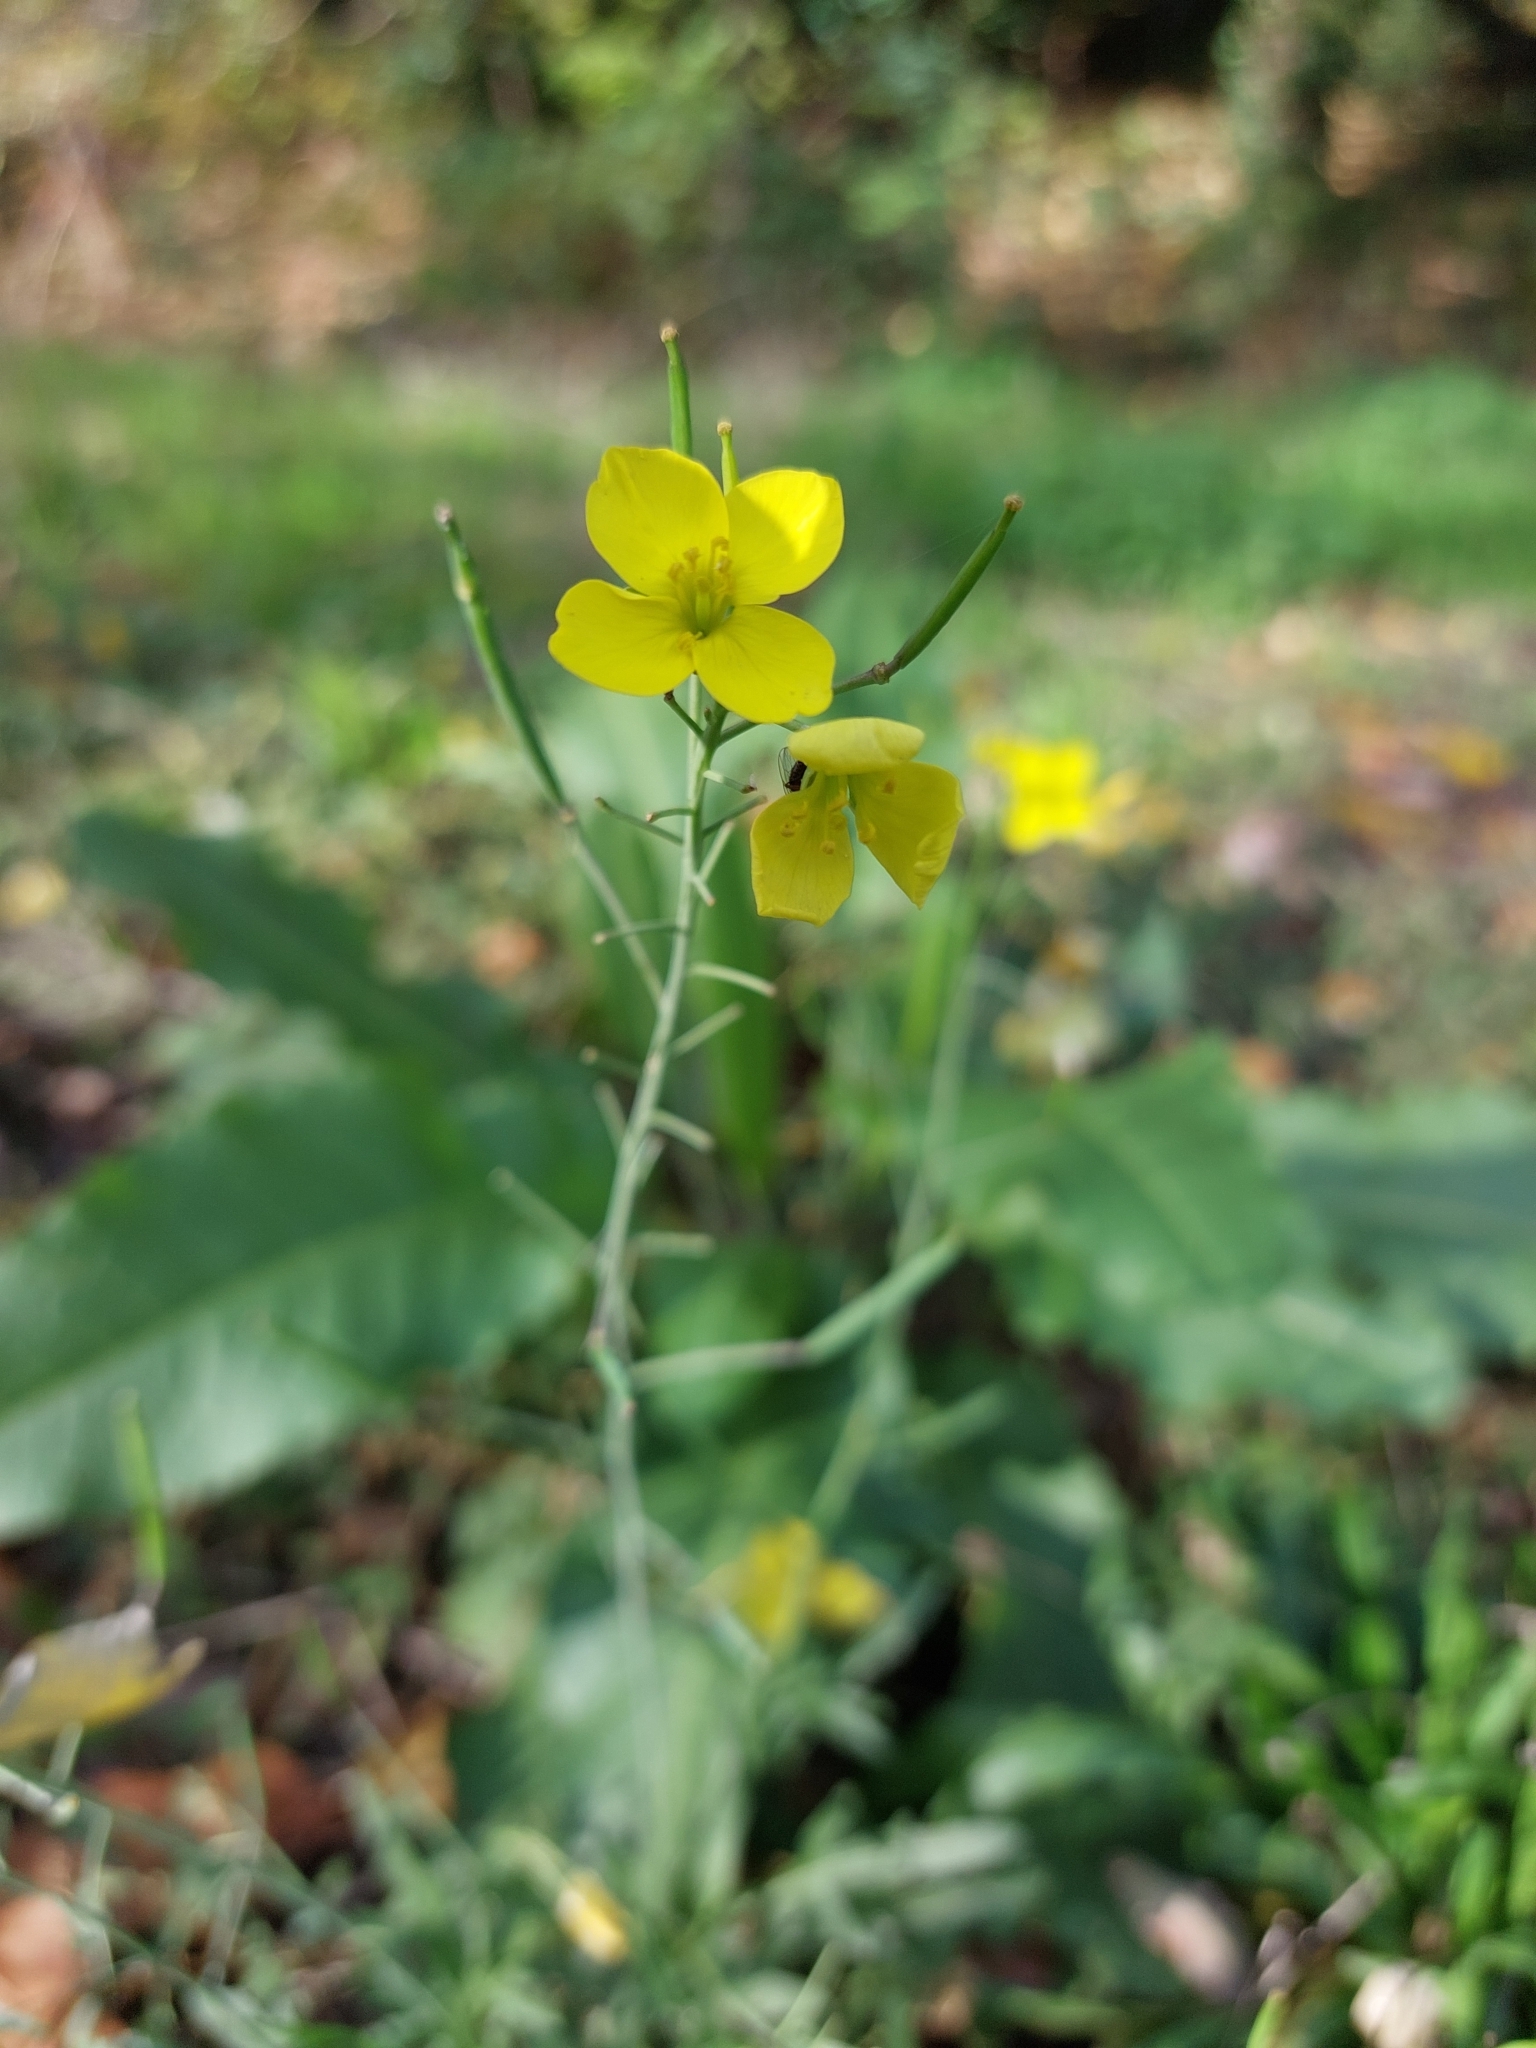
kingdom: Plantae
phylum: Tracheophyta
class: Magnoliopsida
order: Brassicales
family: Brassicaceae
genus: Diplotaxis
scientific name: Diplotaxis tenuifolia
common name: Perennial wall-rocket
